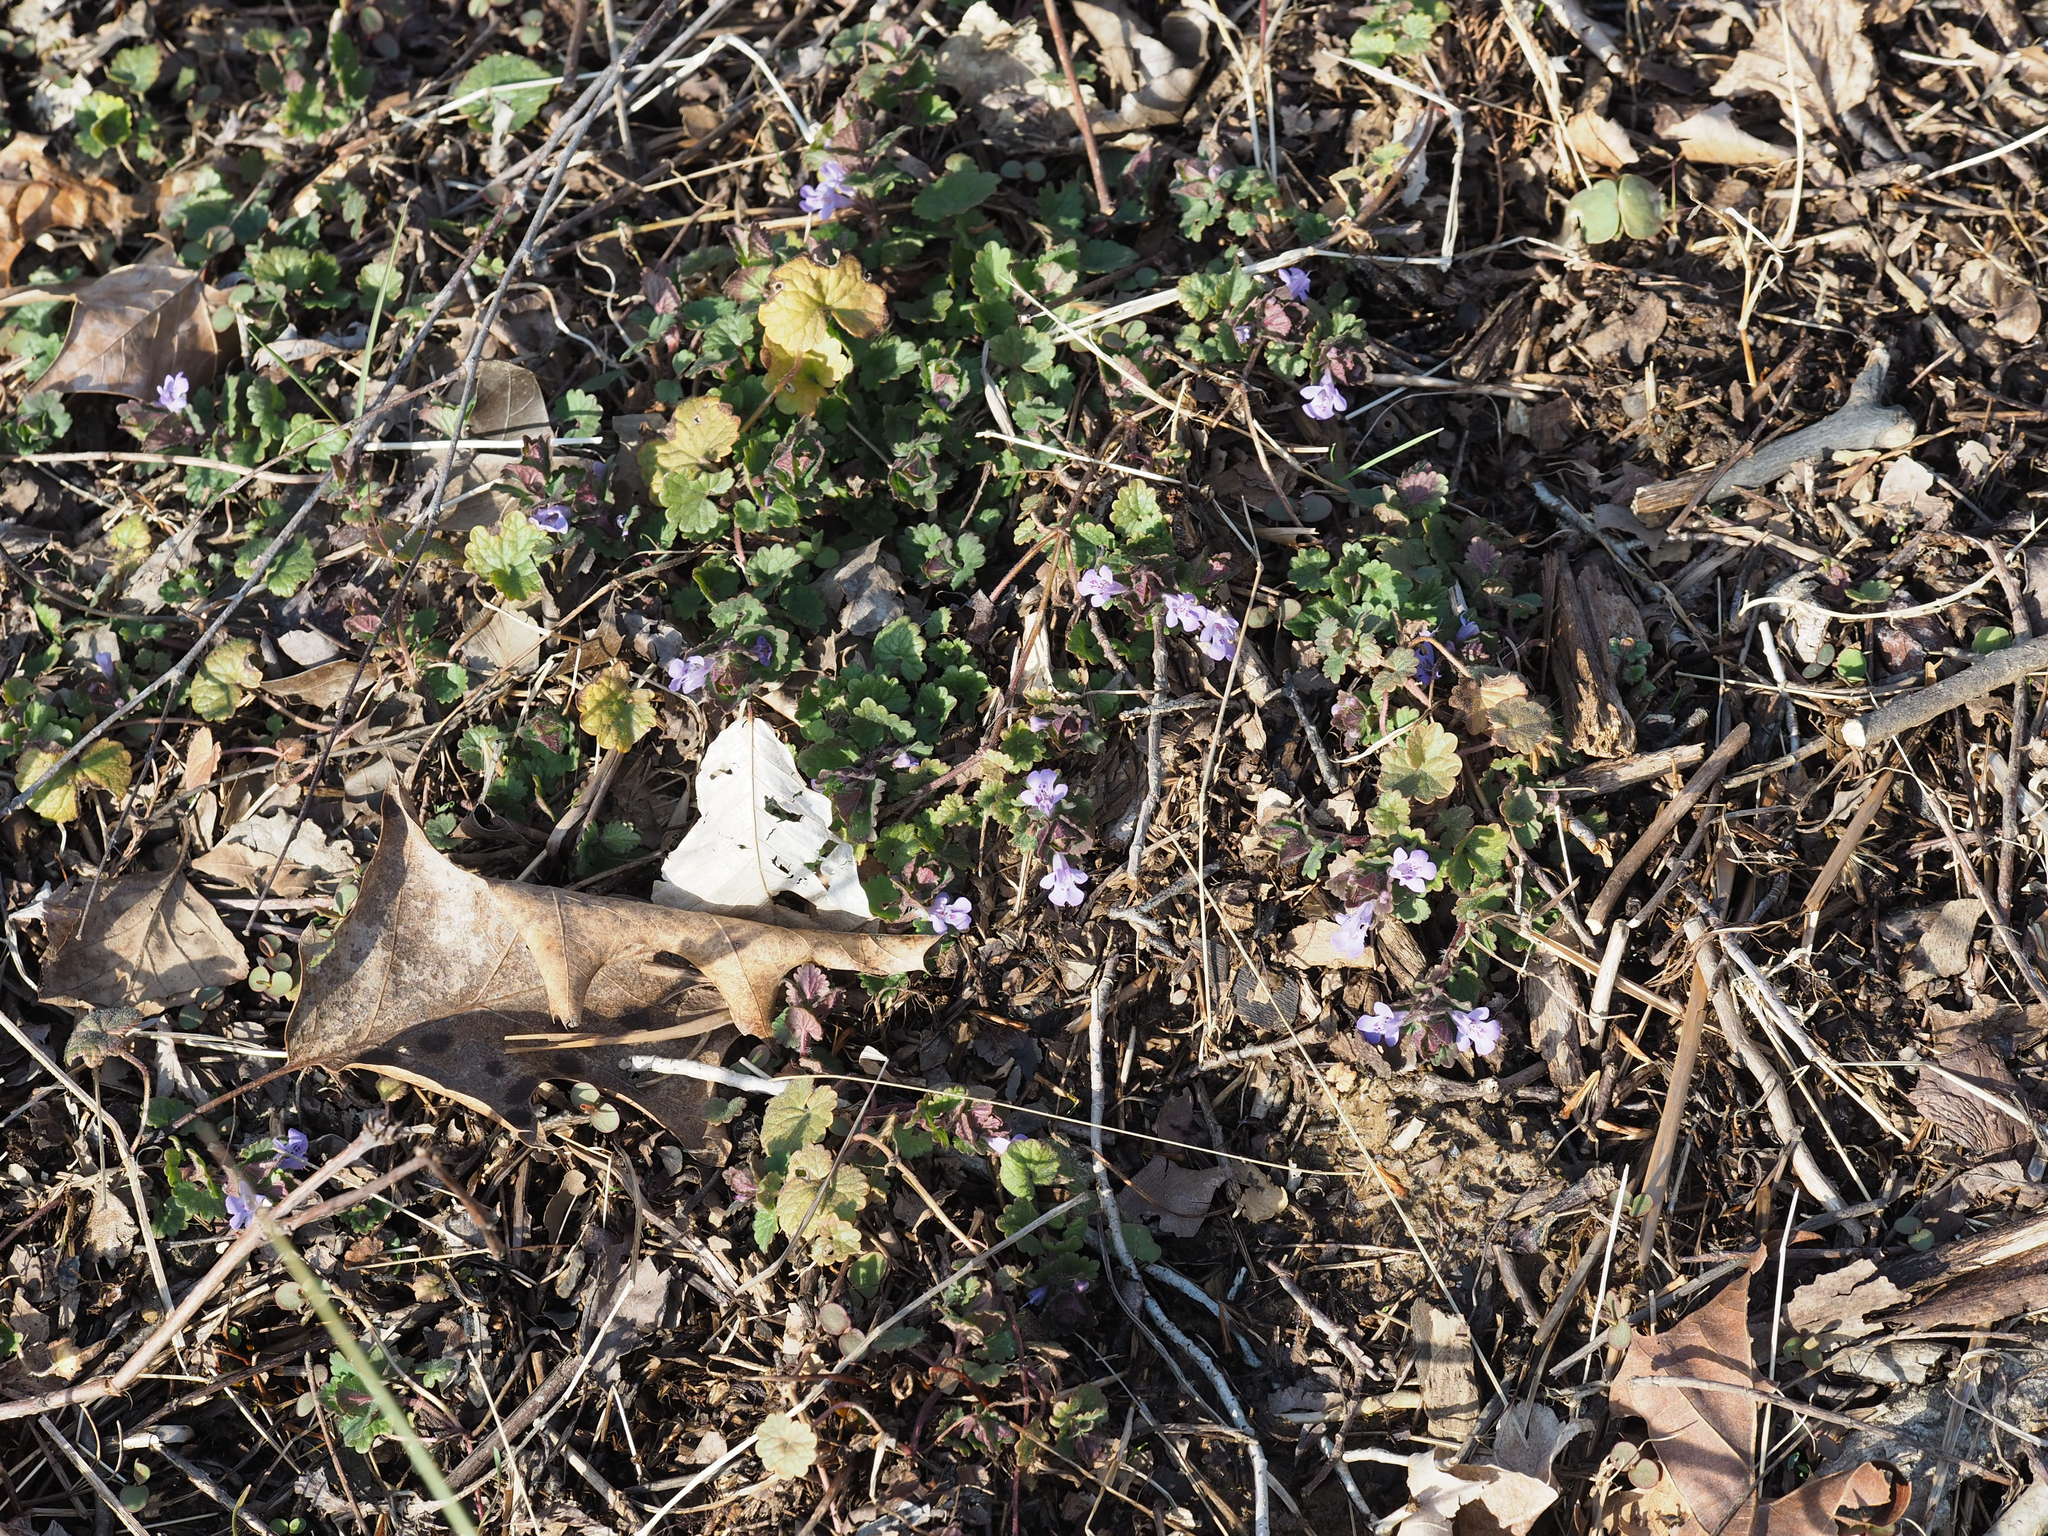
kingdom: Plantae
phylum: Tracheophyta
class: Magnoliopsida
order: Lamiales
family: Lamiaceae
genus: Glechoma
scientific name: Glechoma hederacea
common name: Ground ivy
